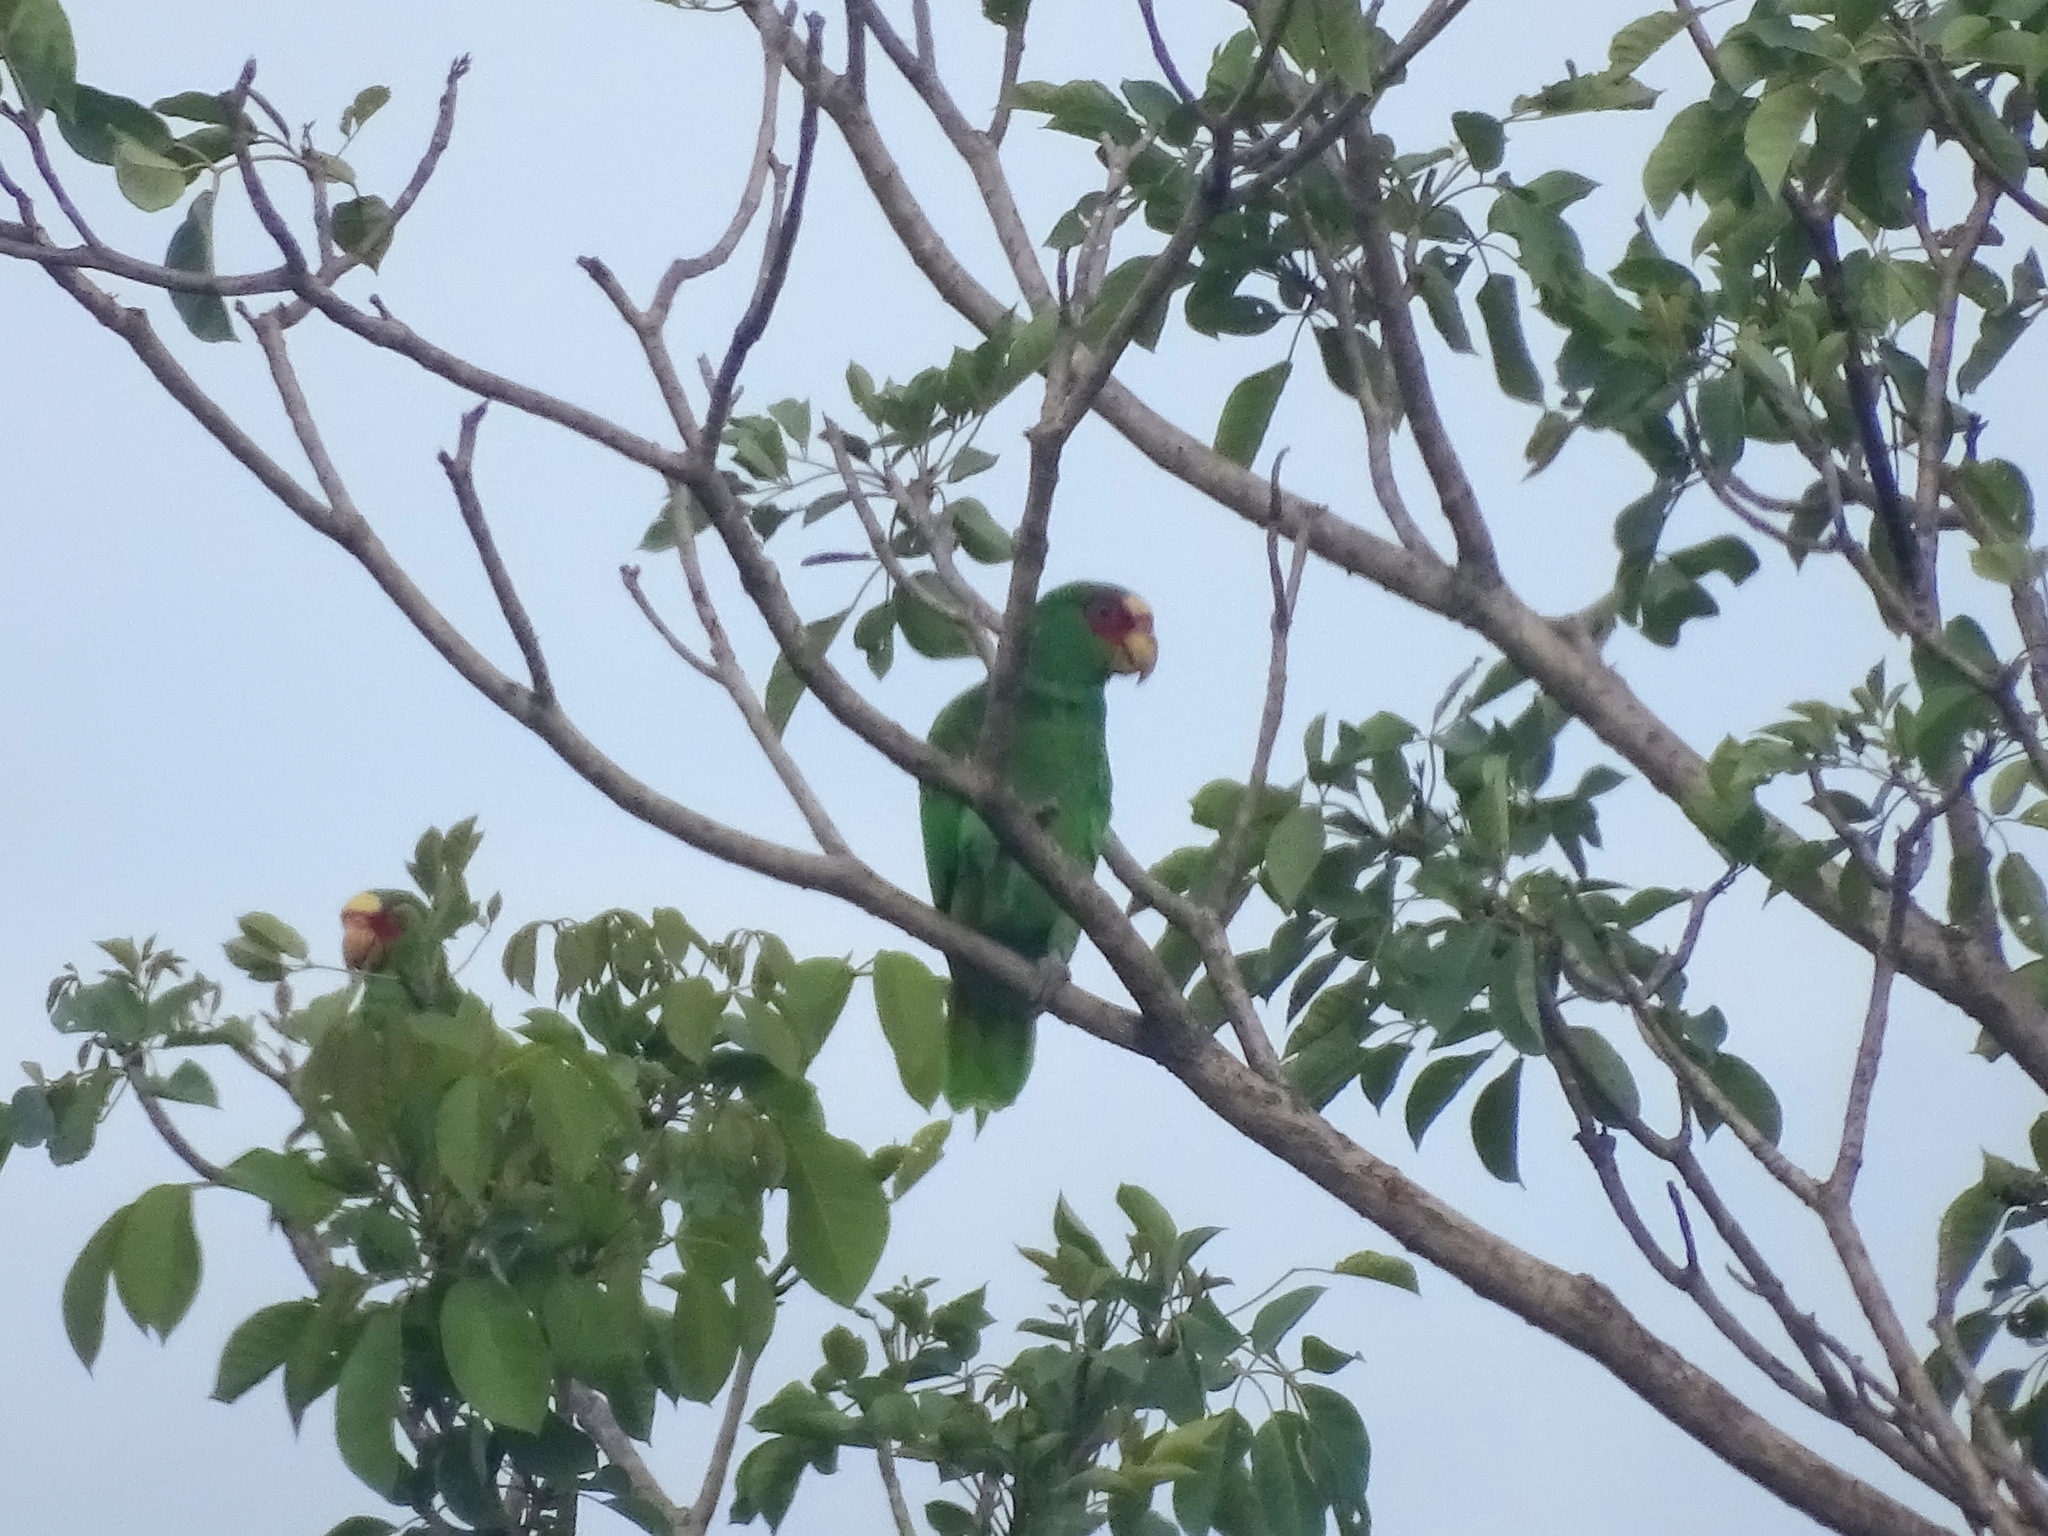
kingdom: Animalia
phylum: Chordata
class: Aves
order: Psittaciformes
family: Psittacidae
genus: Amazona
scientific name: Amazona albifrons
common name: White-fronted amazon
